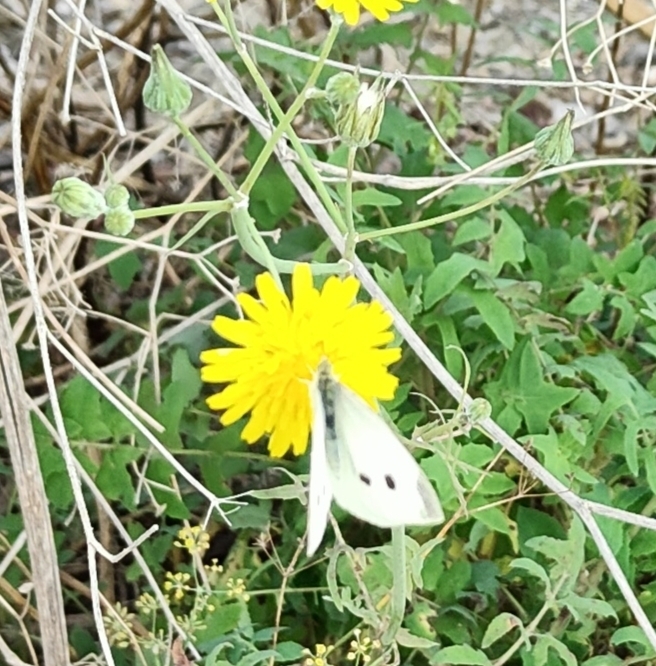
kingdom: Animalia
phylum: Arthropoda
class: Insecta
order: Lepidoptera
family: Pieridae
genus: Pieris
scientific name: Pieris rapae
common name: Small white
